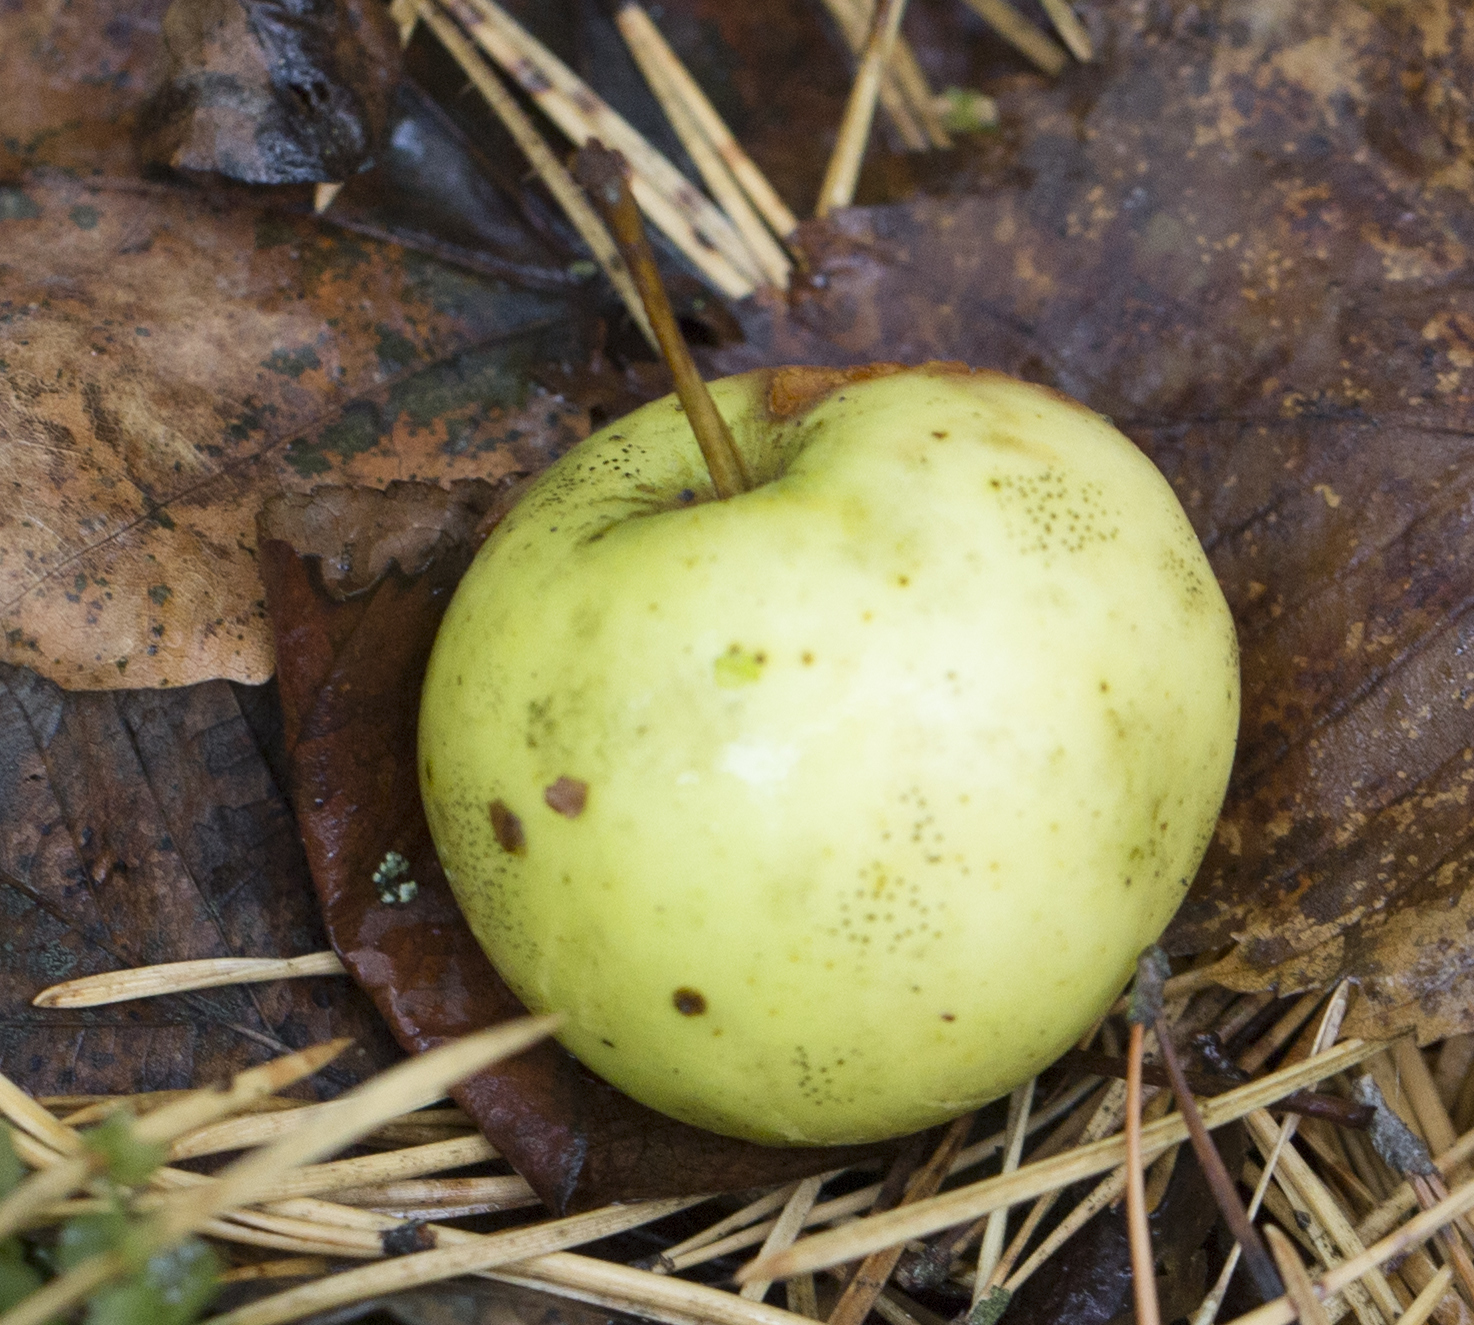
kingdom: Plantae
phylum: Tracheophyta
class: Magnoliopsida
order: Rosales
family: Rosaceae
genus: Malus
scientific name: Malus domestica
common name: Apple
